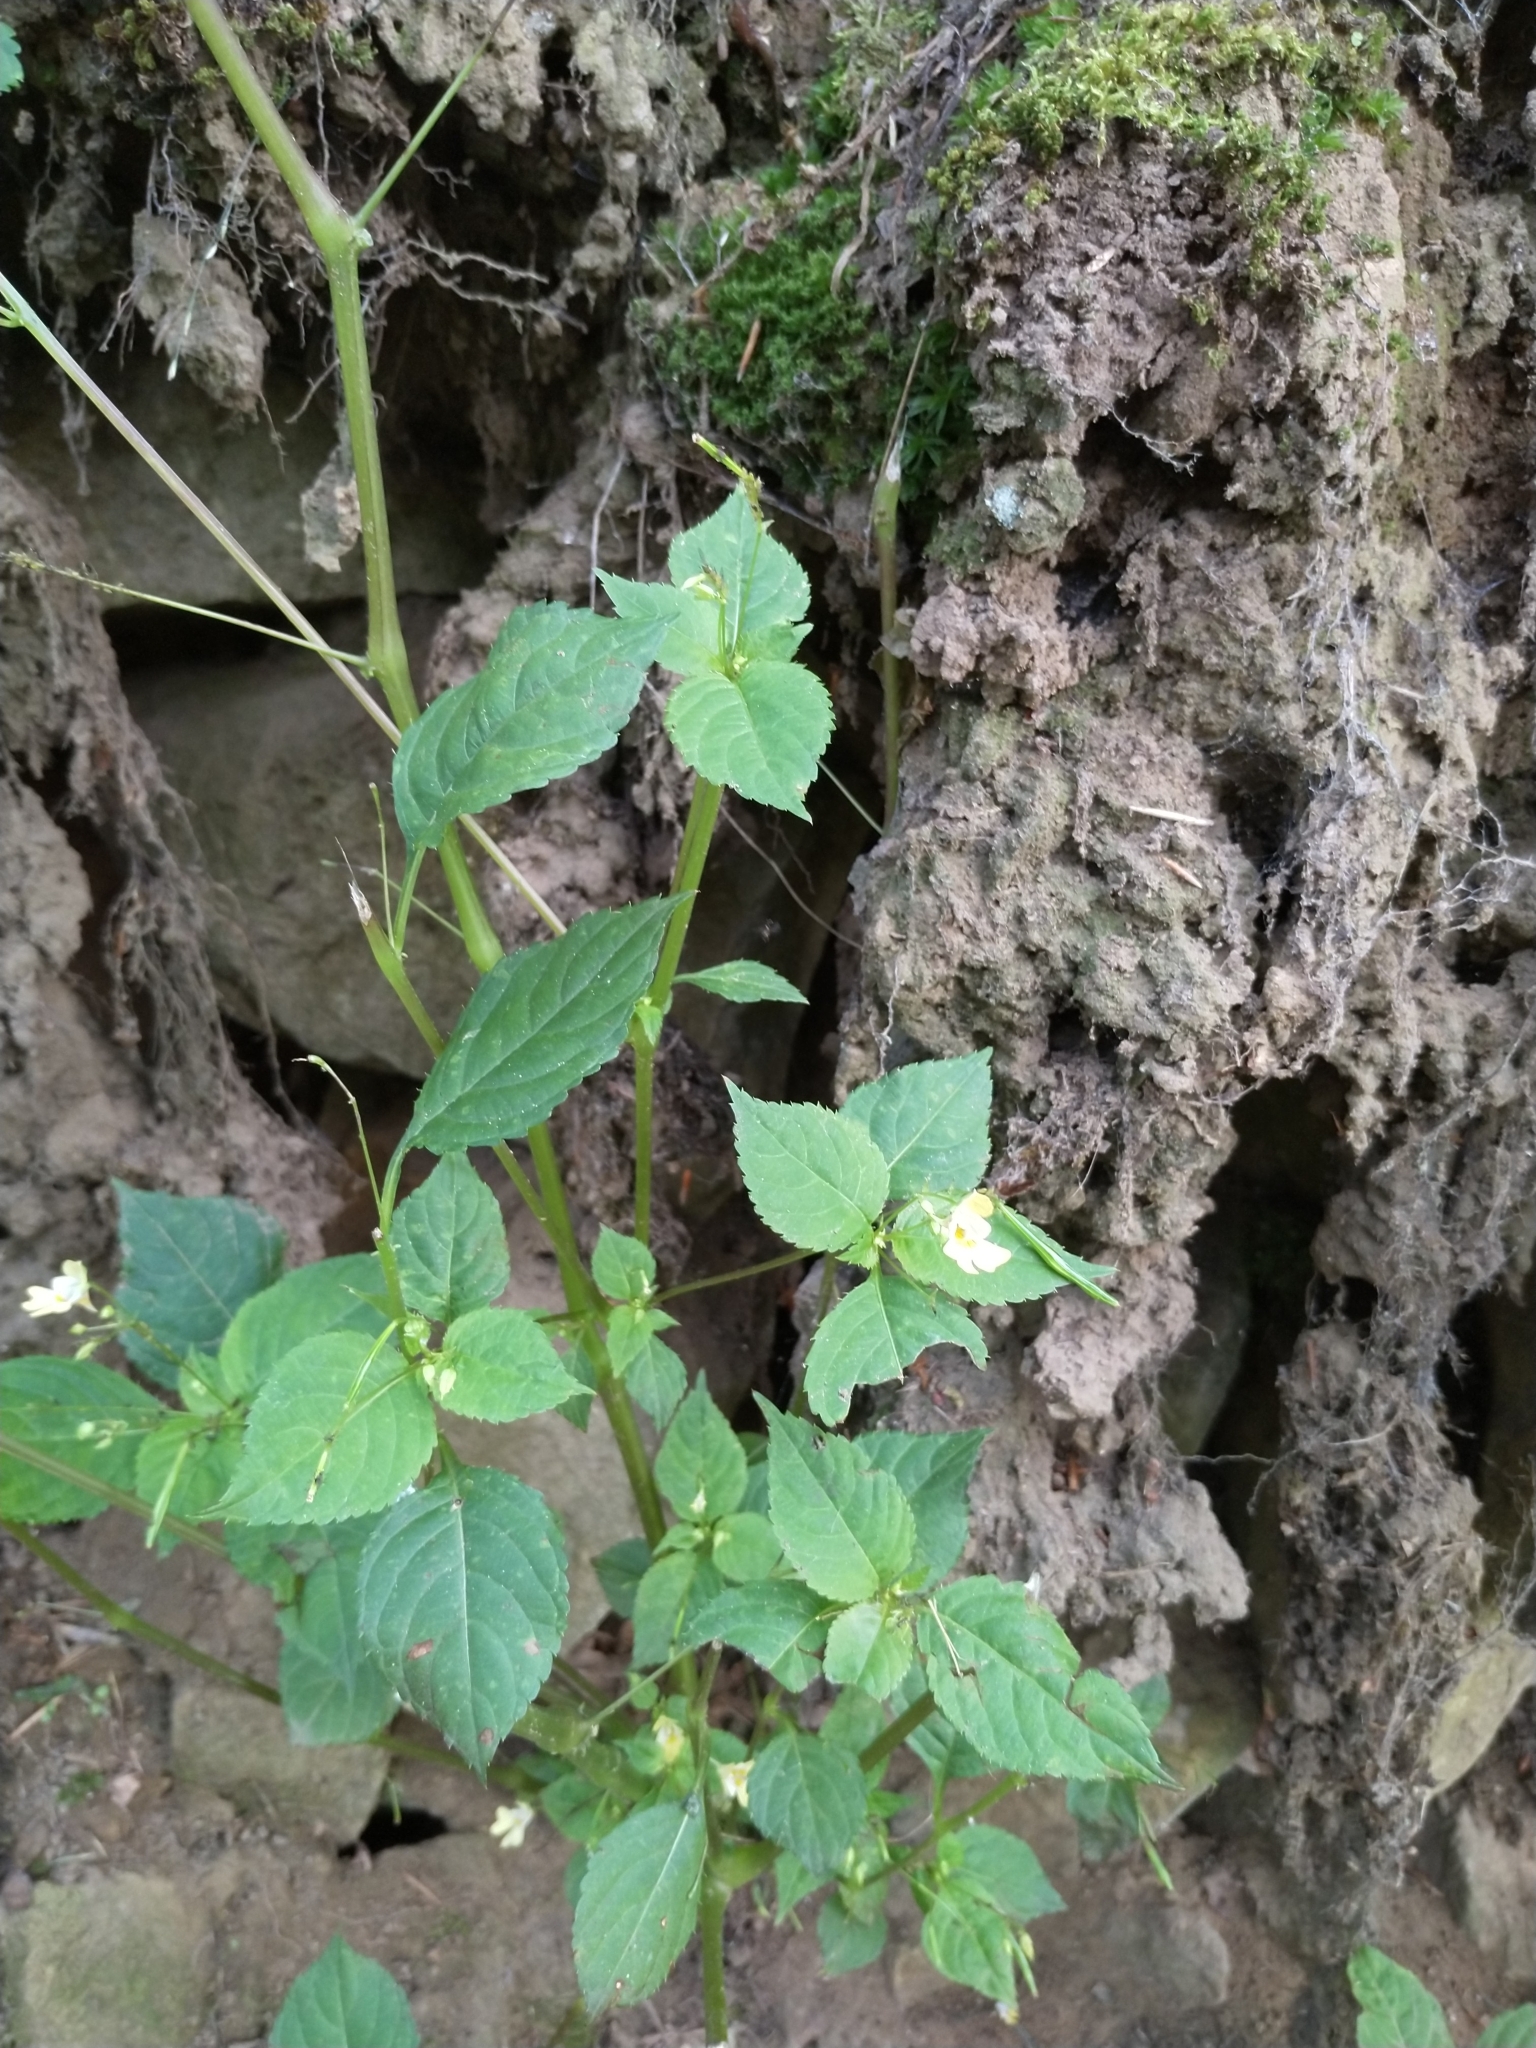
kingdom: Plantae
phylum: Tracheophyta
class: Magnoliopsida
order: Ericales
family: Balsaminaceae
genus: Impatiens
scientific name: Impatiens parviflora
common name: Small balsam
